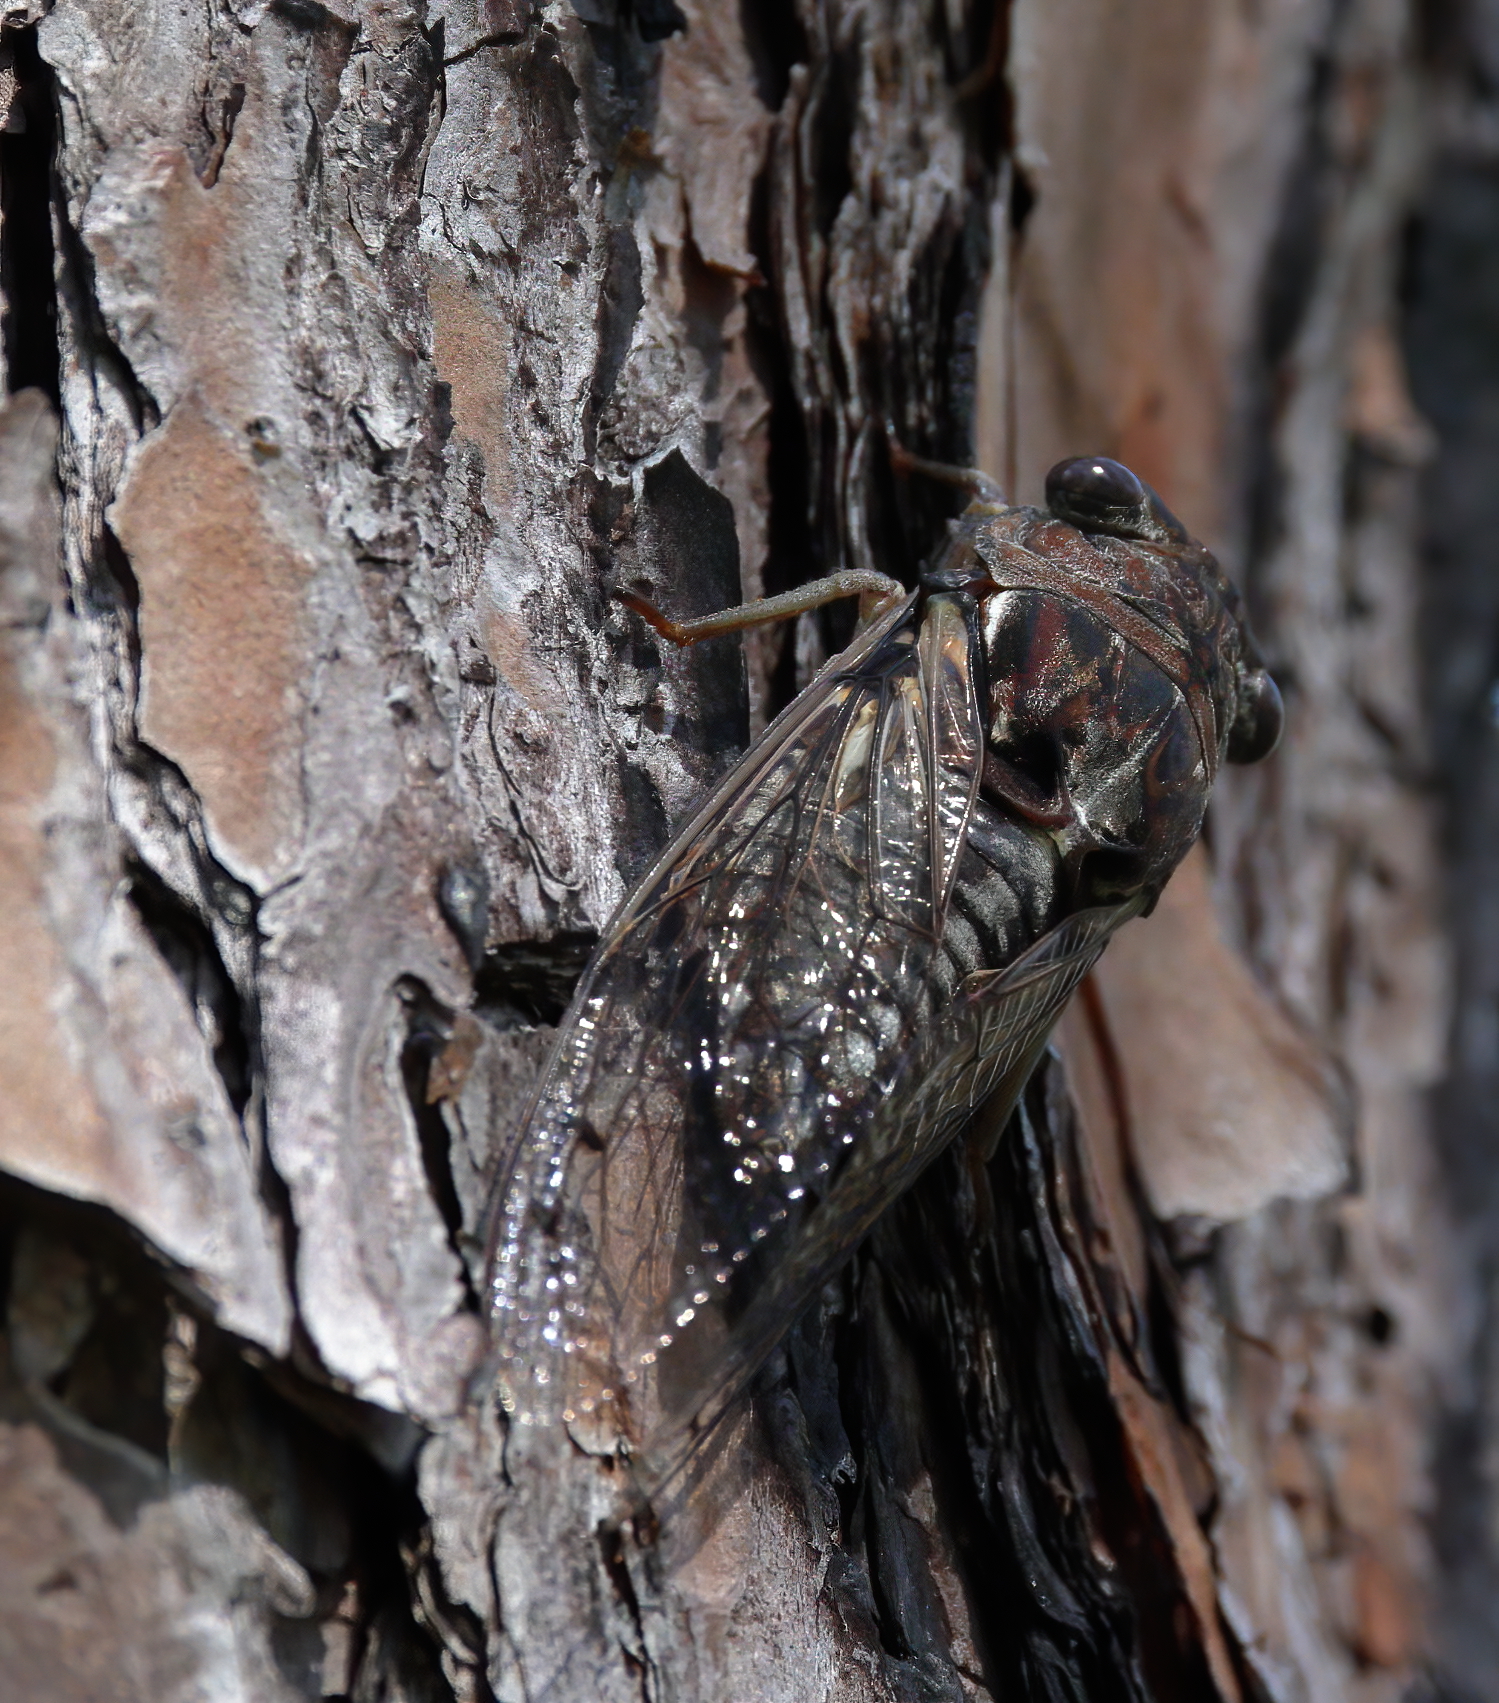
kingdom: Animalia
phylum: Arthropoda
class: Insecta
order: Hemiptera
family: Cicadidae
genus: Megatibicen
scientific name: Megatibicen figuratus
